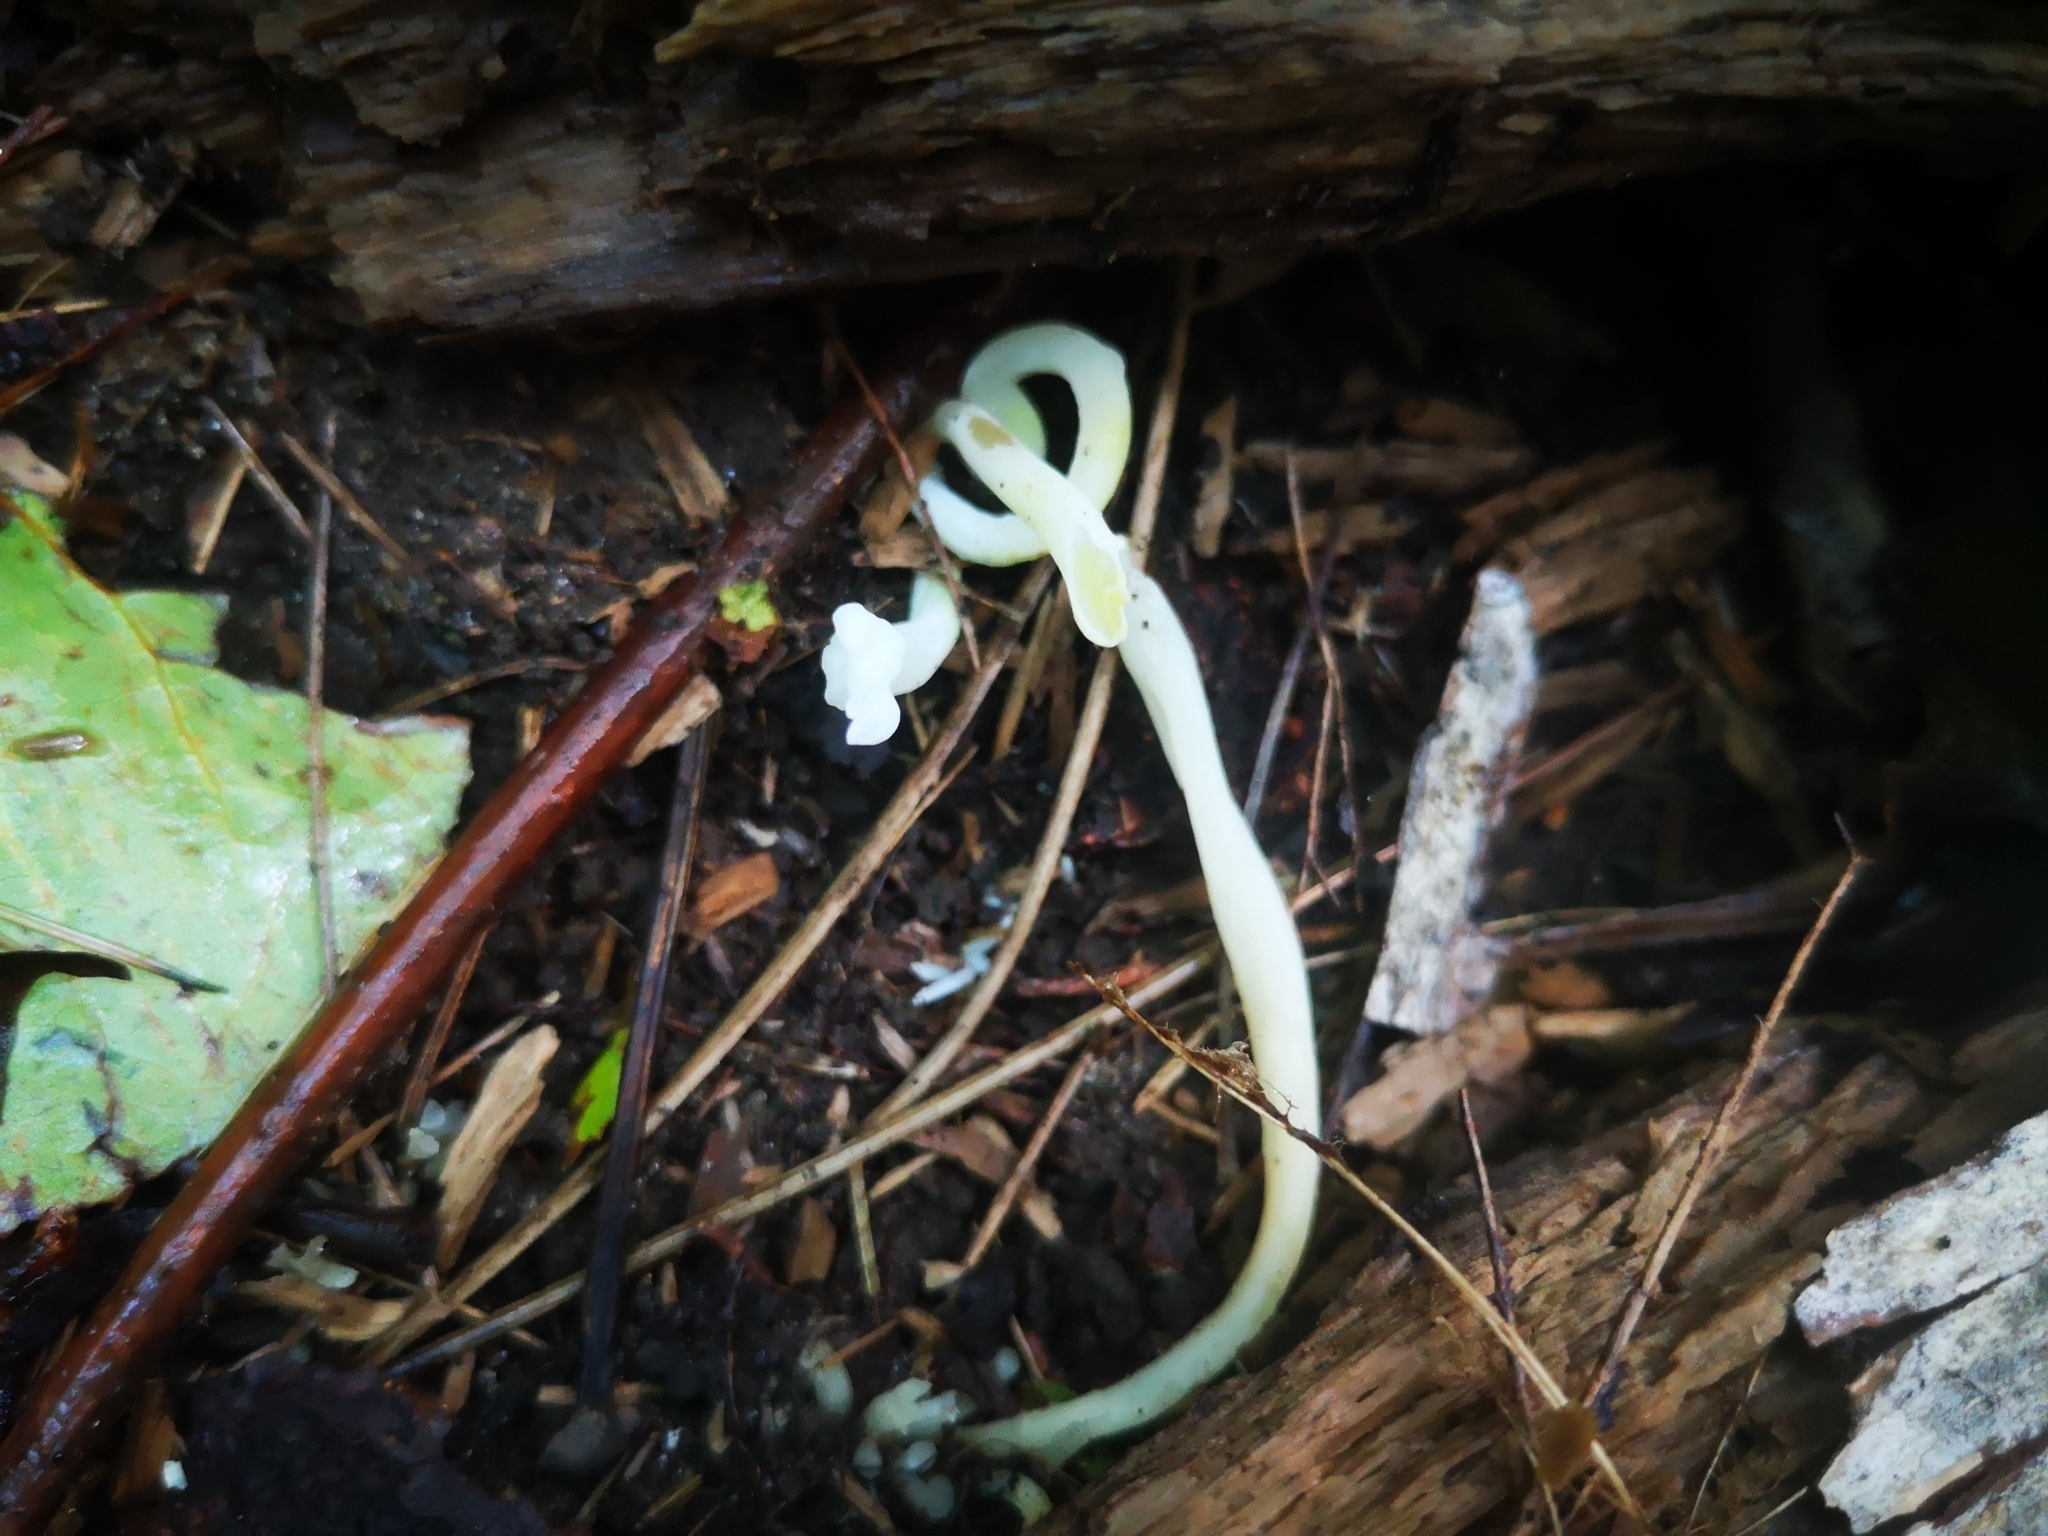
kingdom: Fungi
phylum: Basidiomycota
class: Agaricomycetes
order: Agaricales
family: Clavariaceae
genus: Clavaria
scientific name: Clavaria fragilis
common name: White spindles
